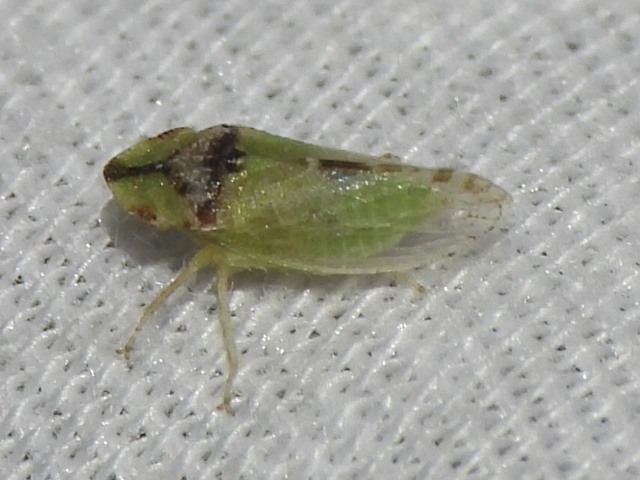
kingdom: Animalia
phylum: Arthropoda
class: Insecta
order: Hemiptera
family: Cicadellidae
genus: Xerophloea
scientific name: Xerophloea viridis
